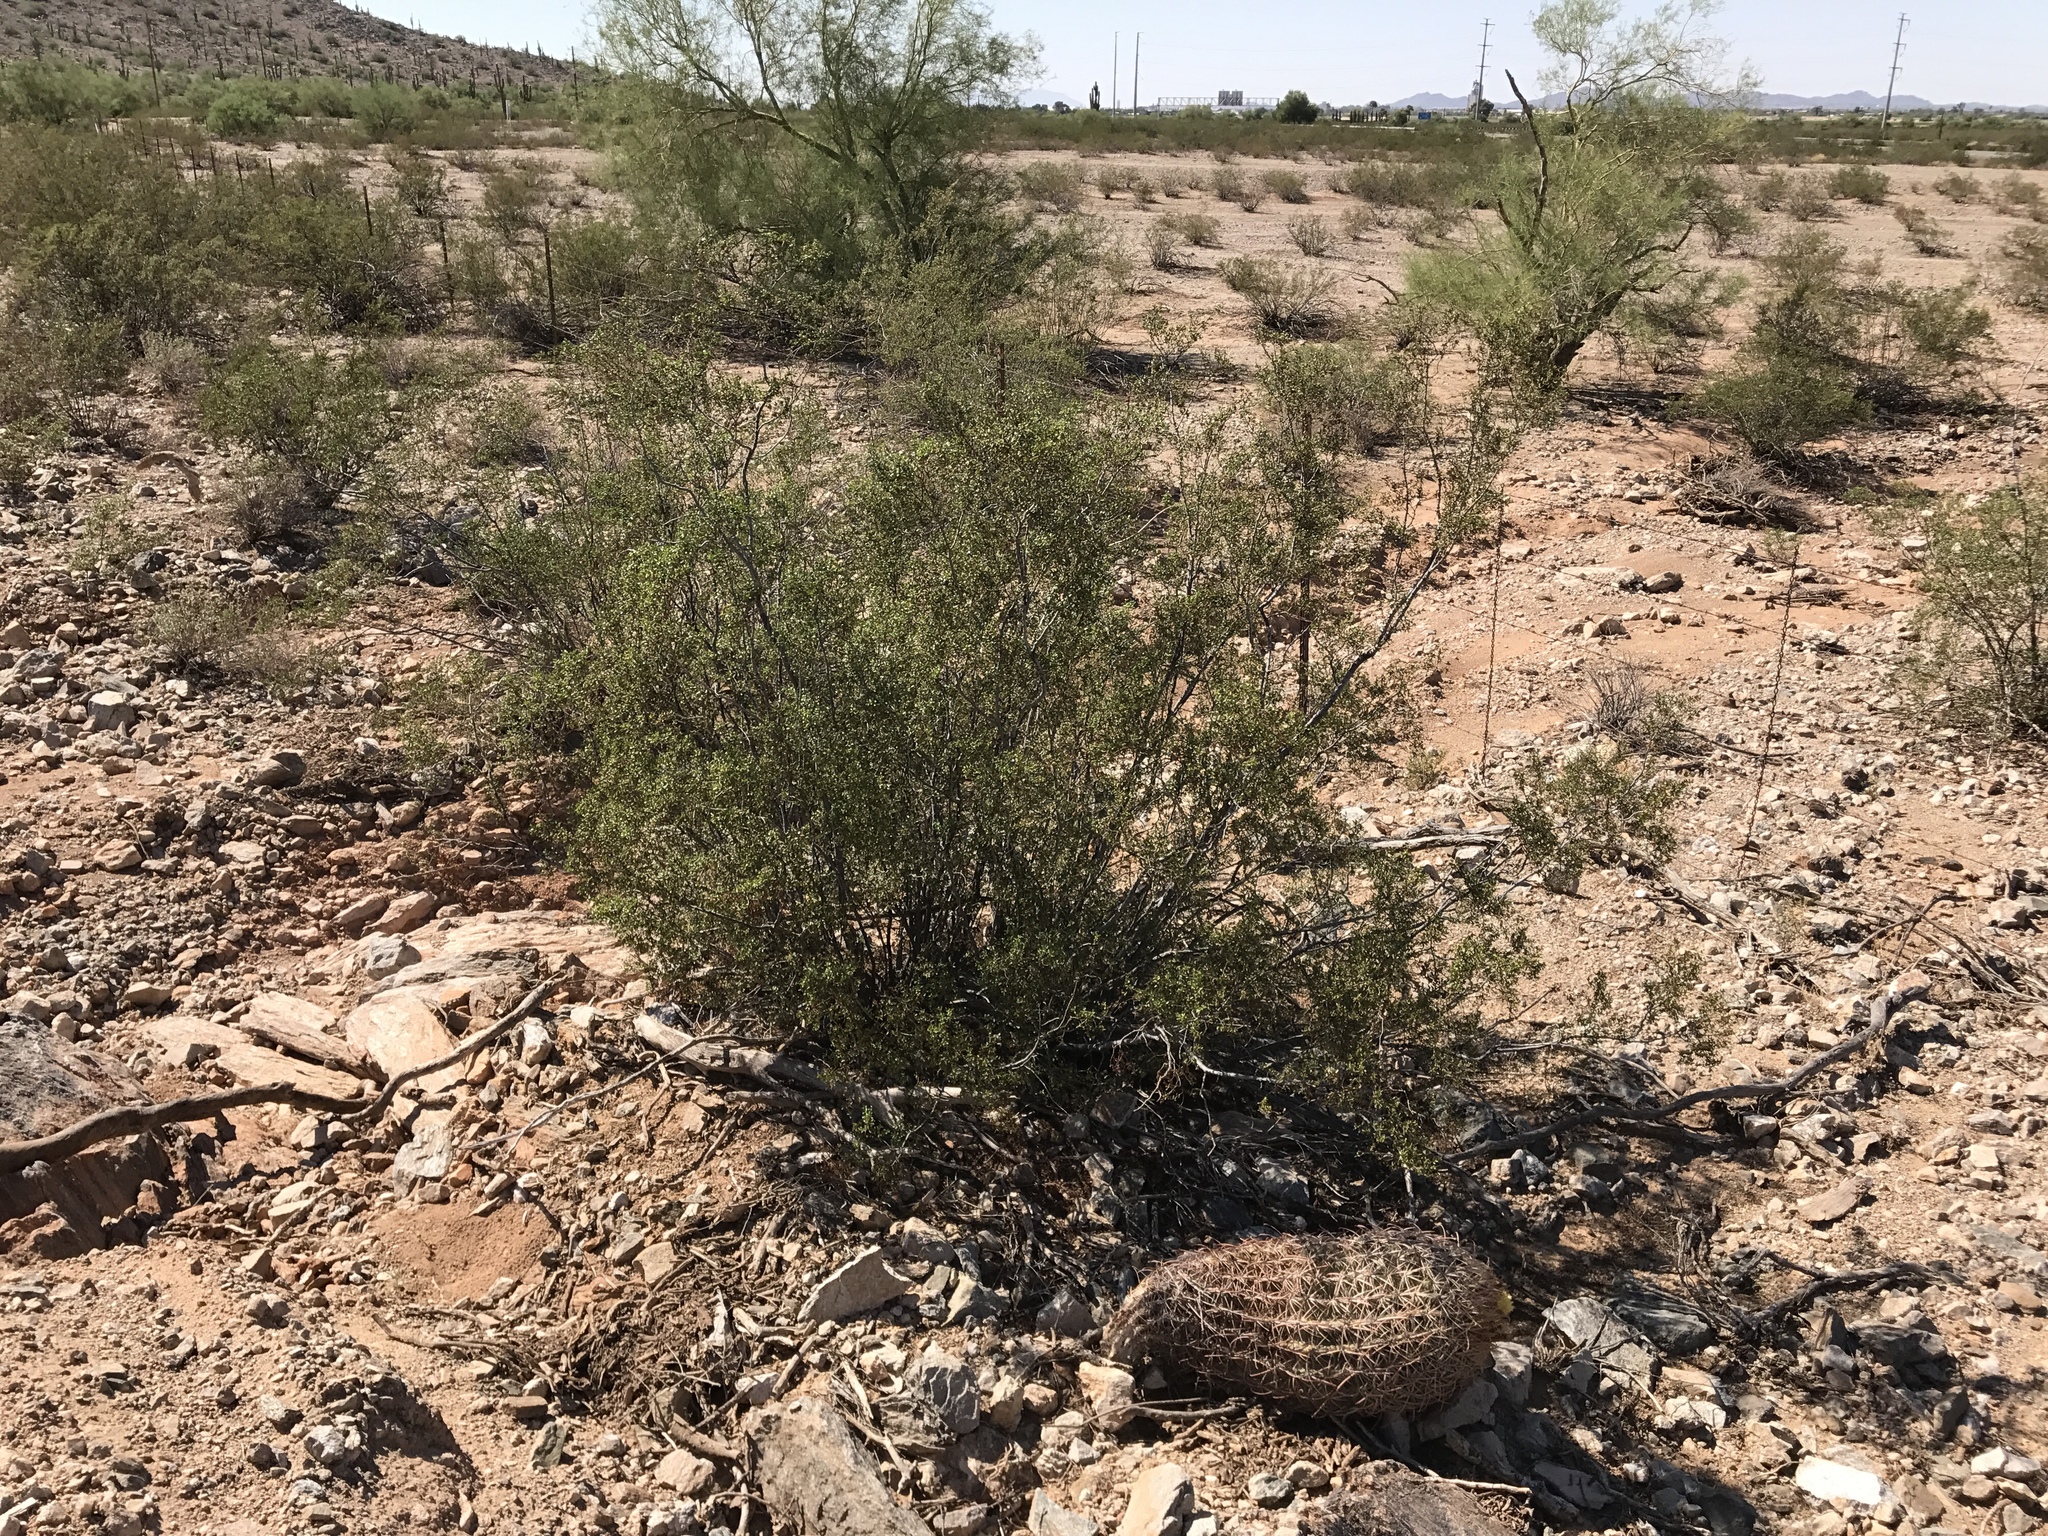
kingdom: Plantae
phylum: Tracheophyta
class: Magnoliopsida
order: Zygophyllales
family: Zygophyllaceae
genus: Larrea
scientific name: Larrea tridentata
